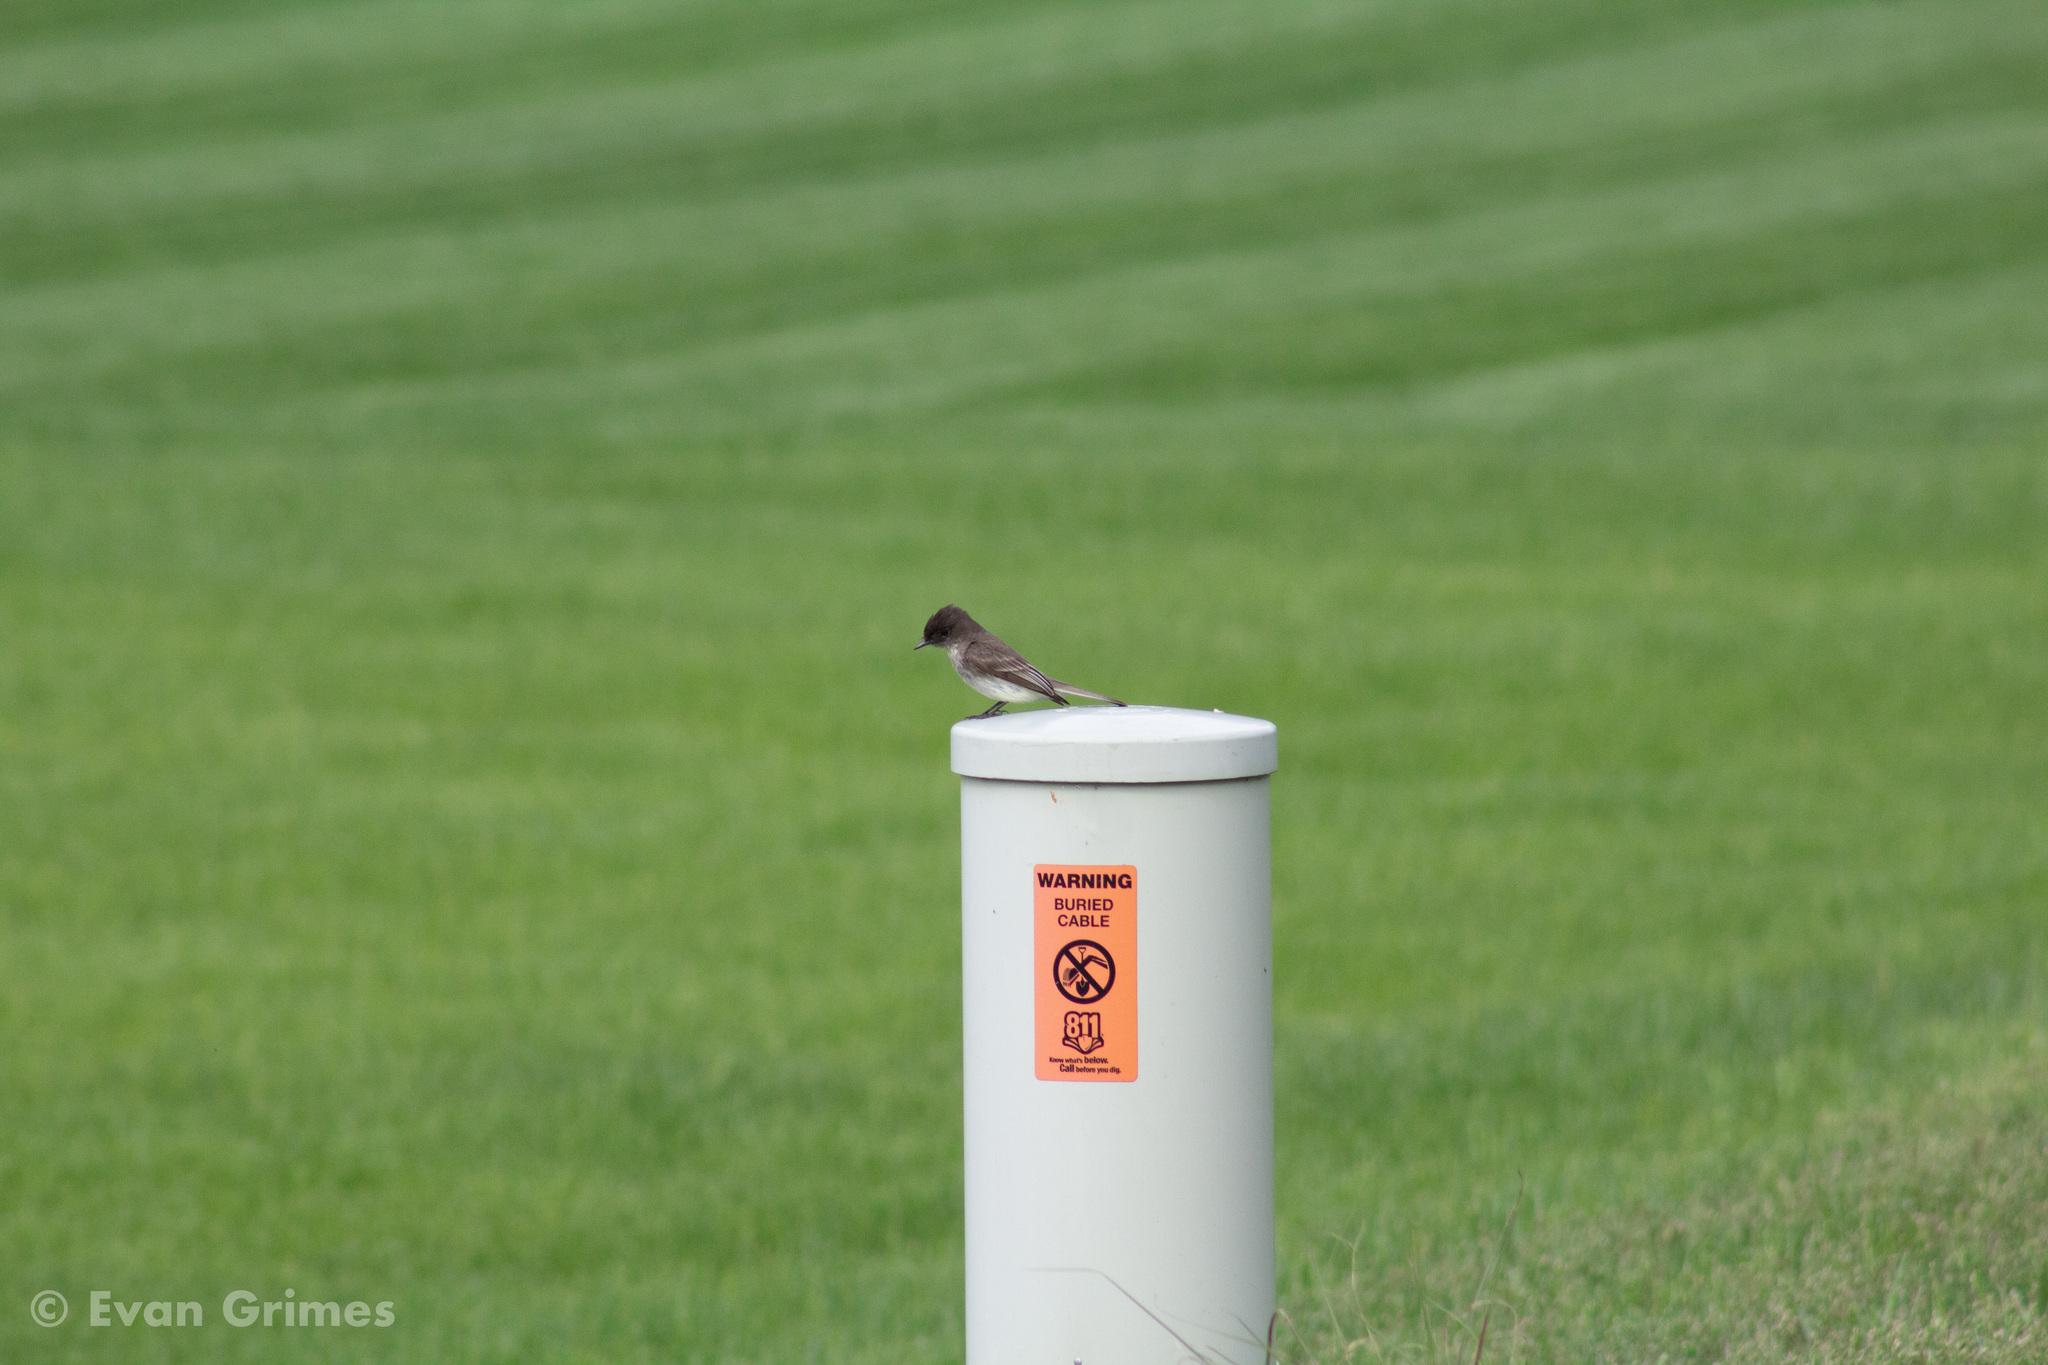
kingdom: Animalia
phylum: Chordata
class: Aves
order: Passeriformes
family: Tyrannidae
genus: Sayornis
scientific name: Sayornis phoebe
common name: Eastern phoebe
